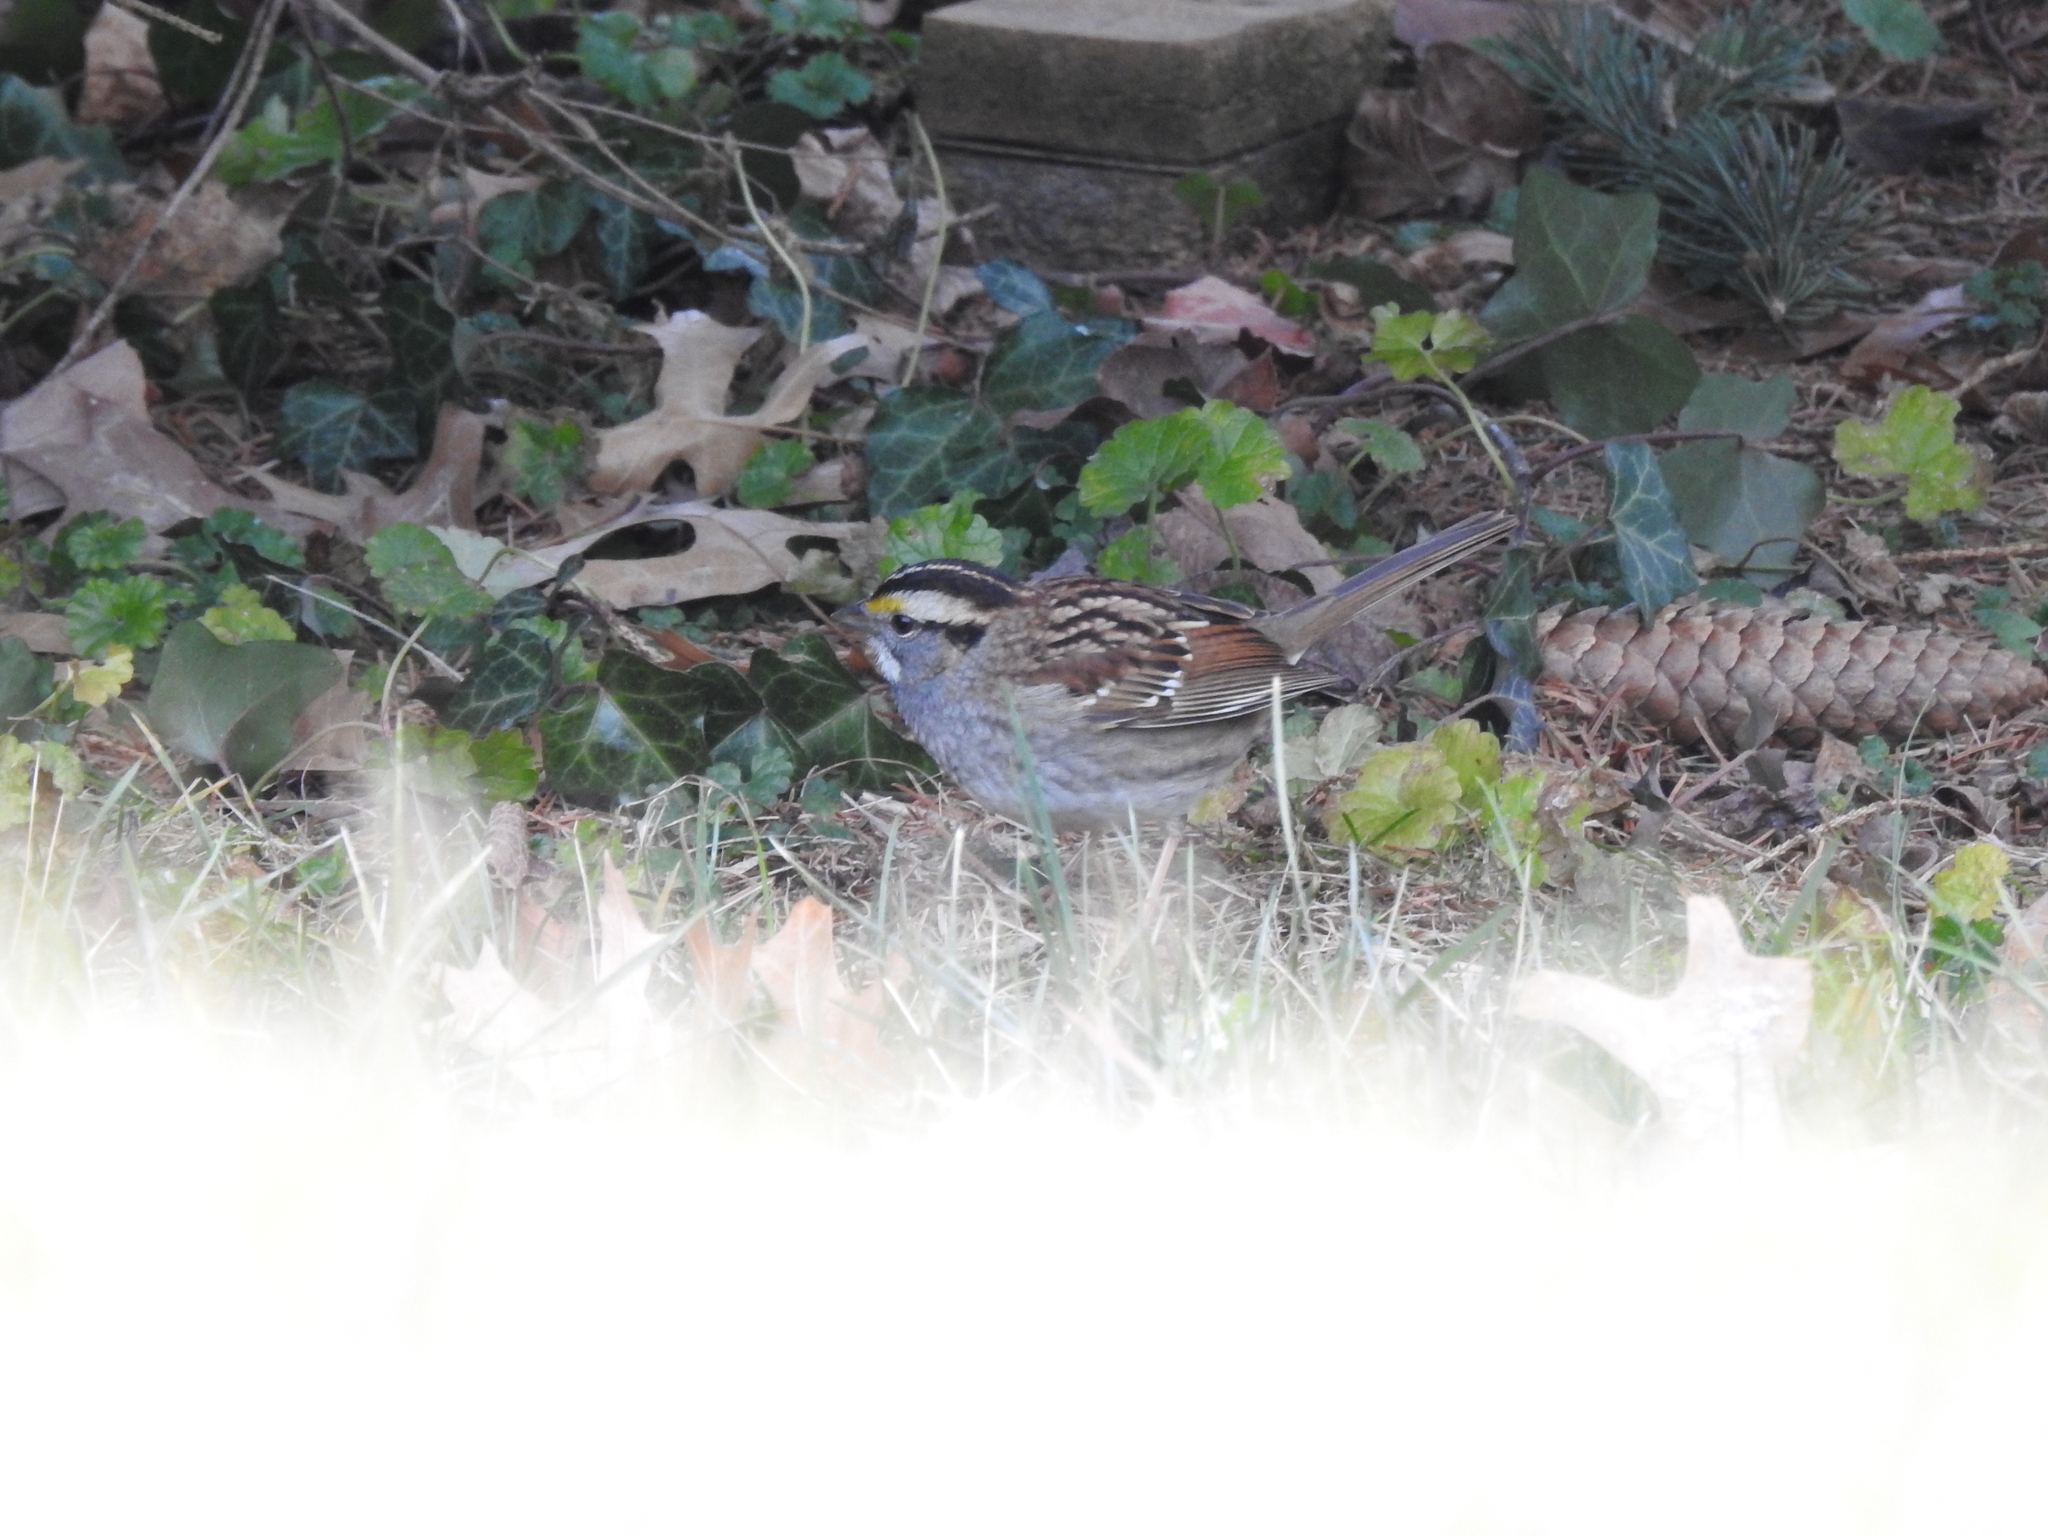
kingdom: Animalia
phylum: Chordata
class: Aves
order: Passeriformes
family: Passerellidae
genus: Zonotrichia
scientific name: Zonotrichia albicollis
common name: White-throated sparrow
